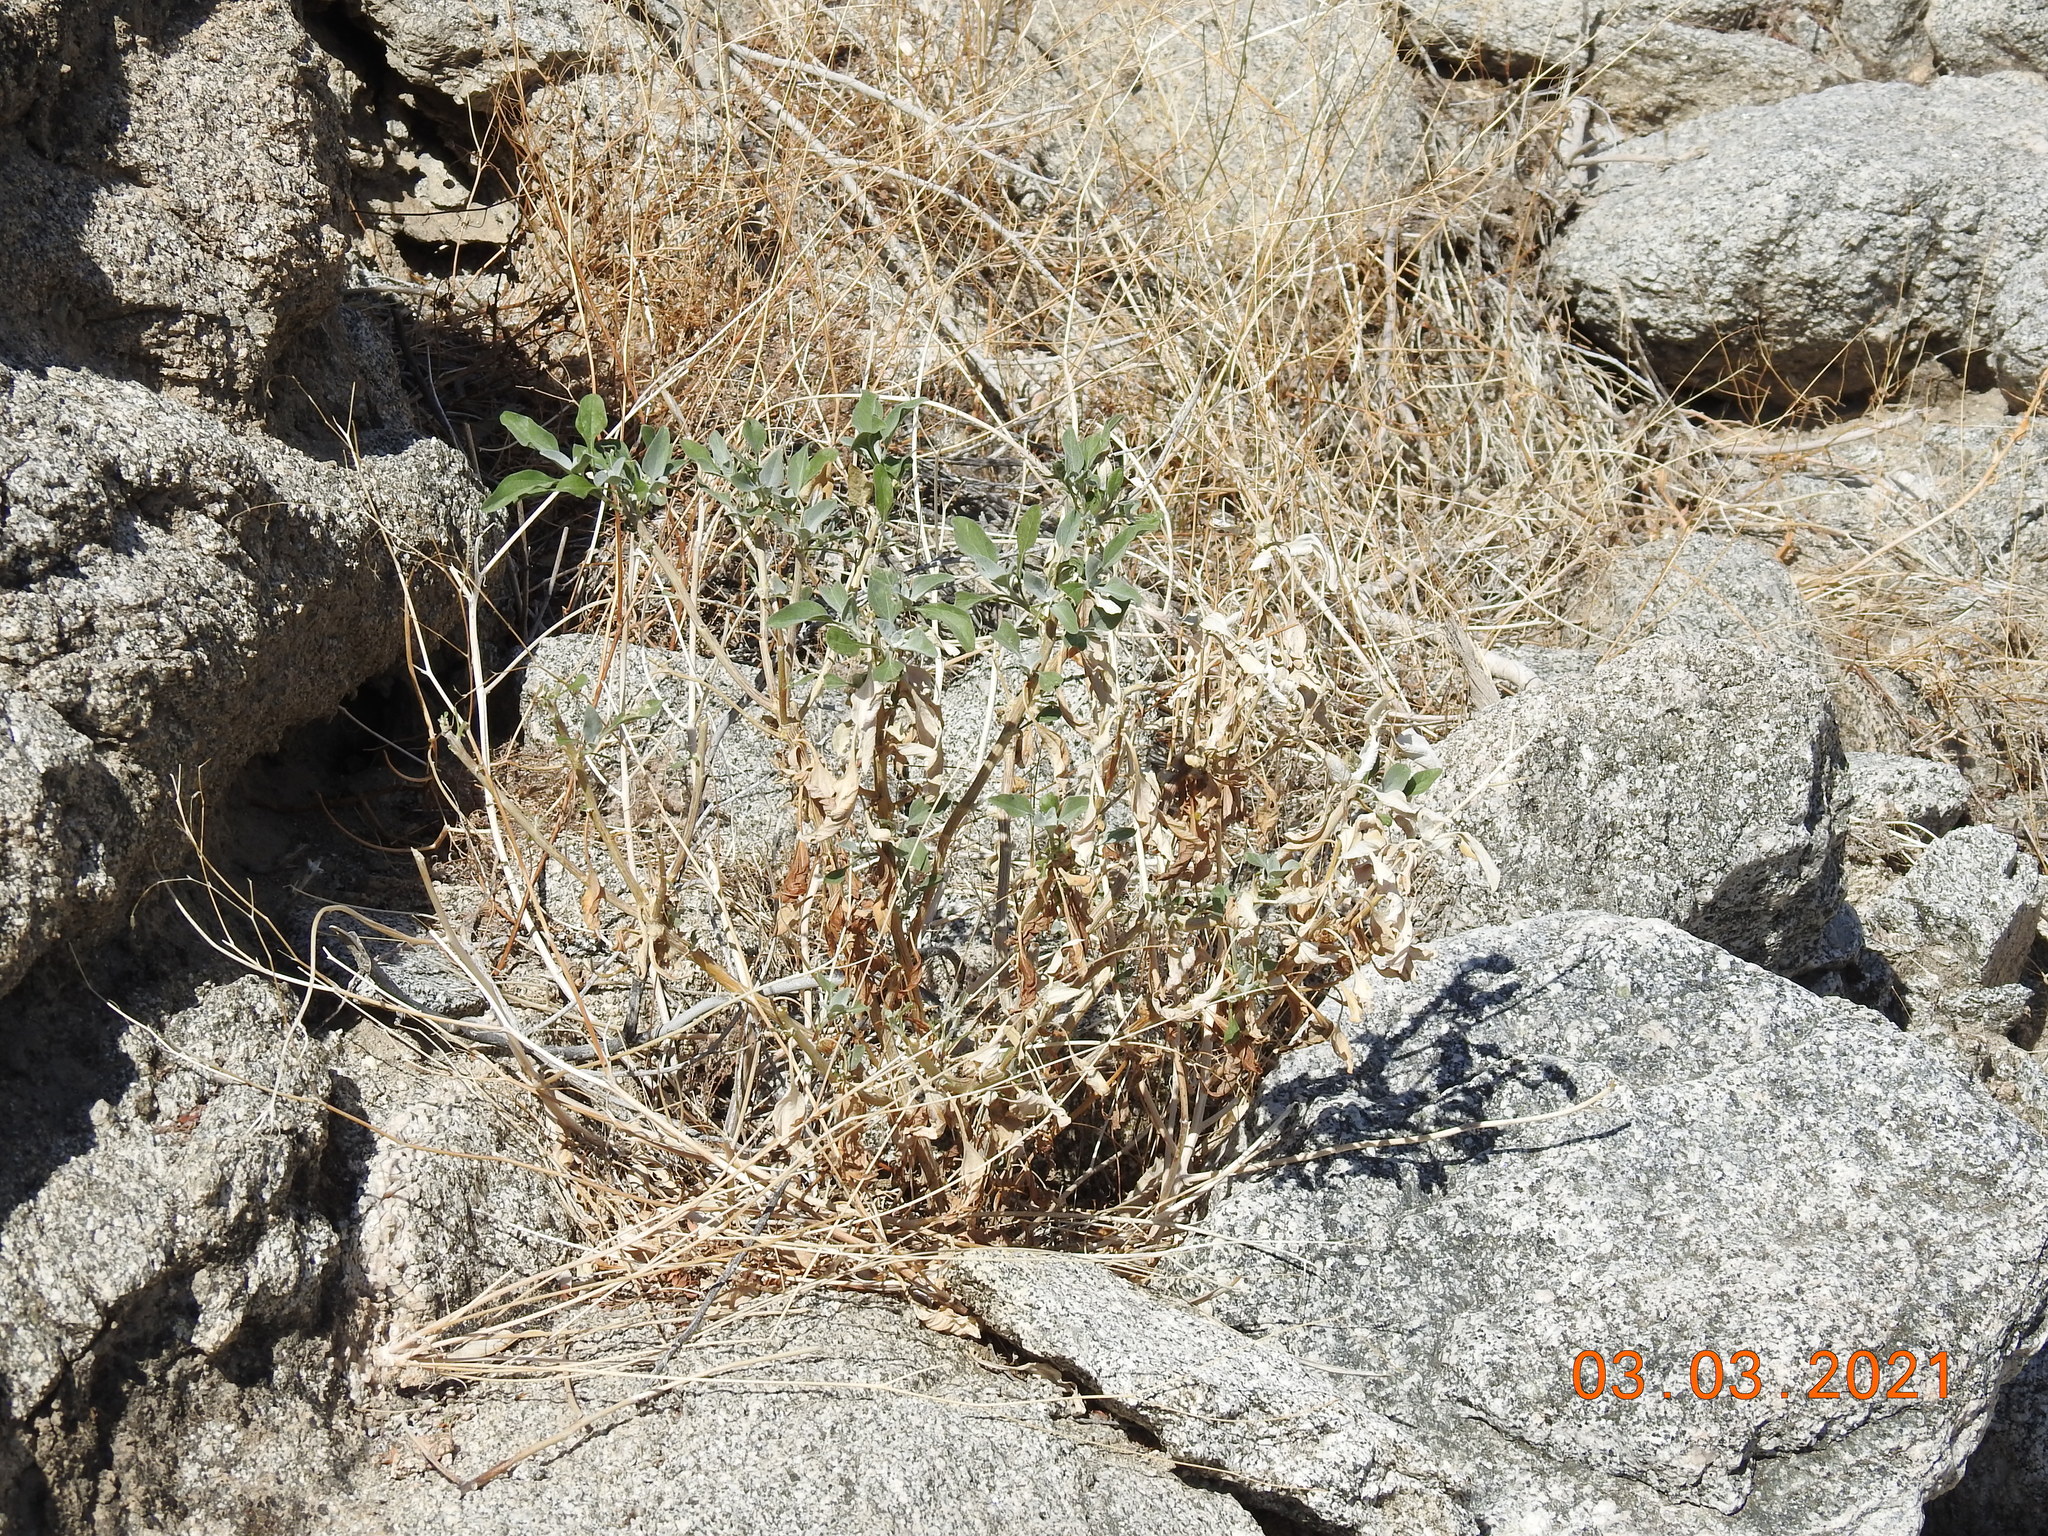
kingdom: Plantae
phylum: Tracheophyta
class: Magnoliopsida
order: Asterales
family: Asteraceae
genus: Encelia
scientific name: Encelia farinosa
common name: Brittlebush
